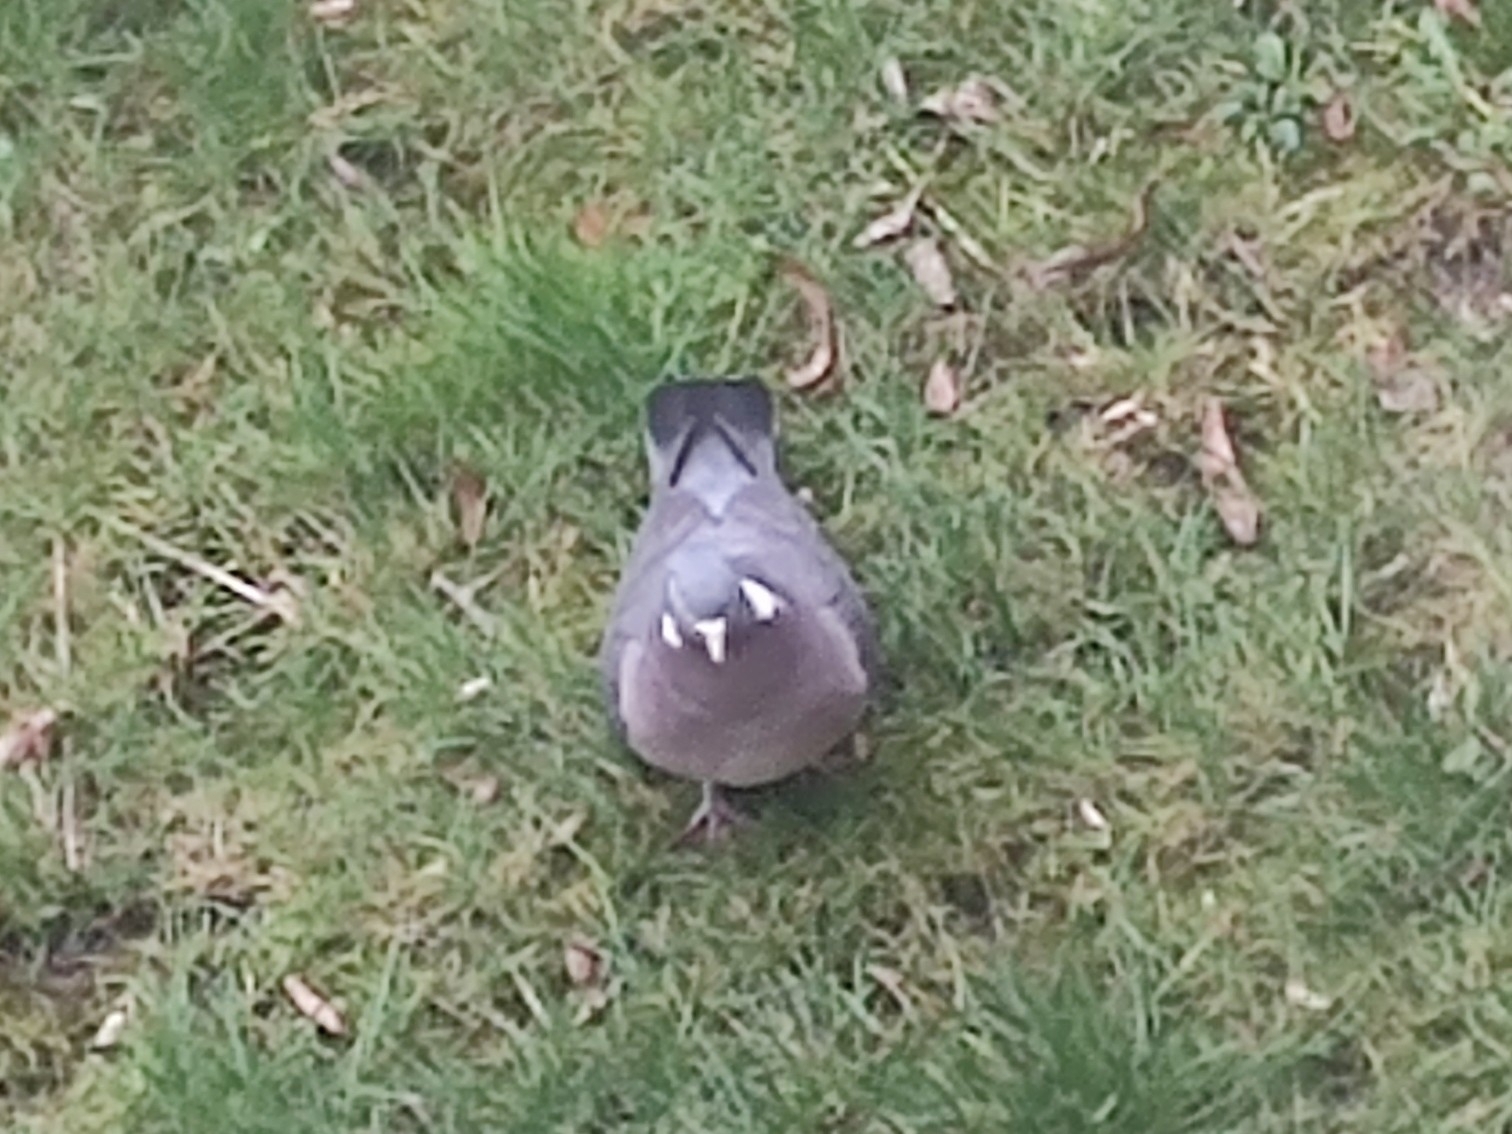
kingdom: Animalia
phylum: Chordata
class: Aves
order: Columbiformes
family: Columbidae
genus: Columba
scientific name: Columba palumbus
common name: Common wood pigeon
